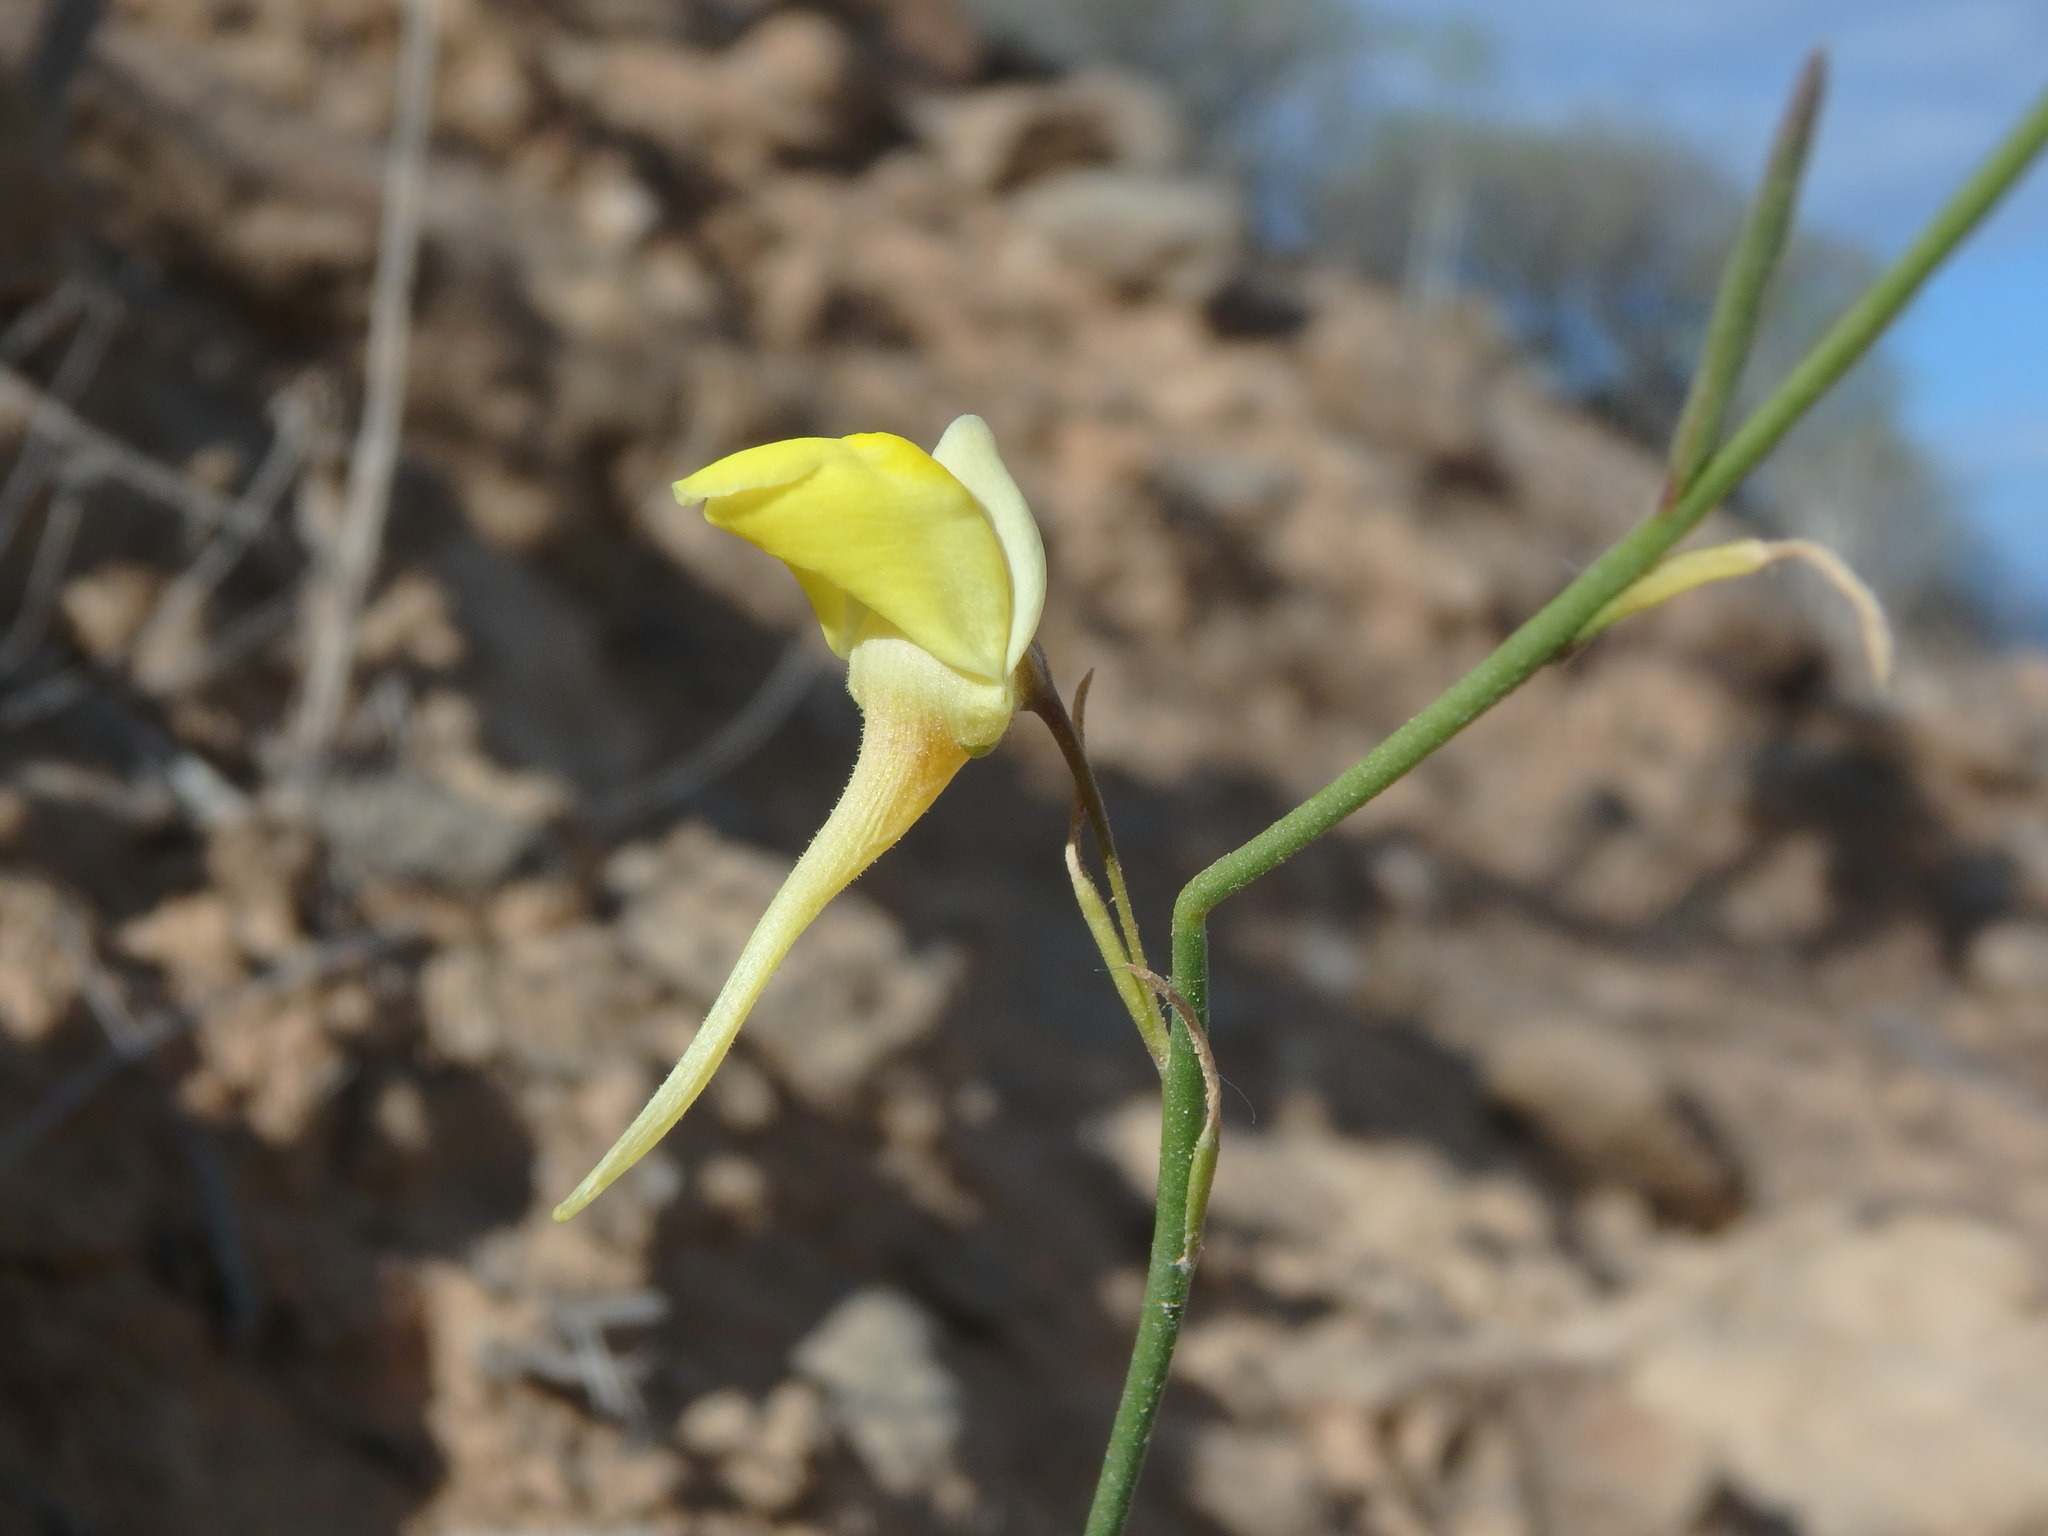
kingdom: Plantae
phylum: Tracheophyta
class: Magnoliopsida
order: Lamiales
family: Plantaginaceae
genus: Nanorrhinum
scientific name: Nanorrhinum scoparium
